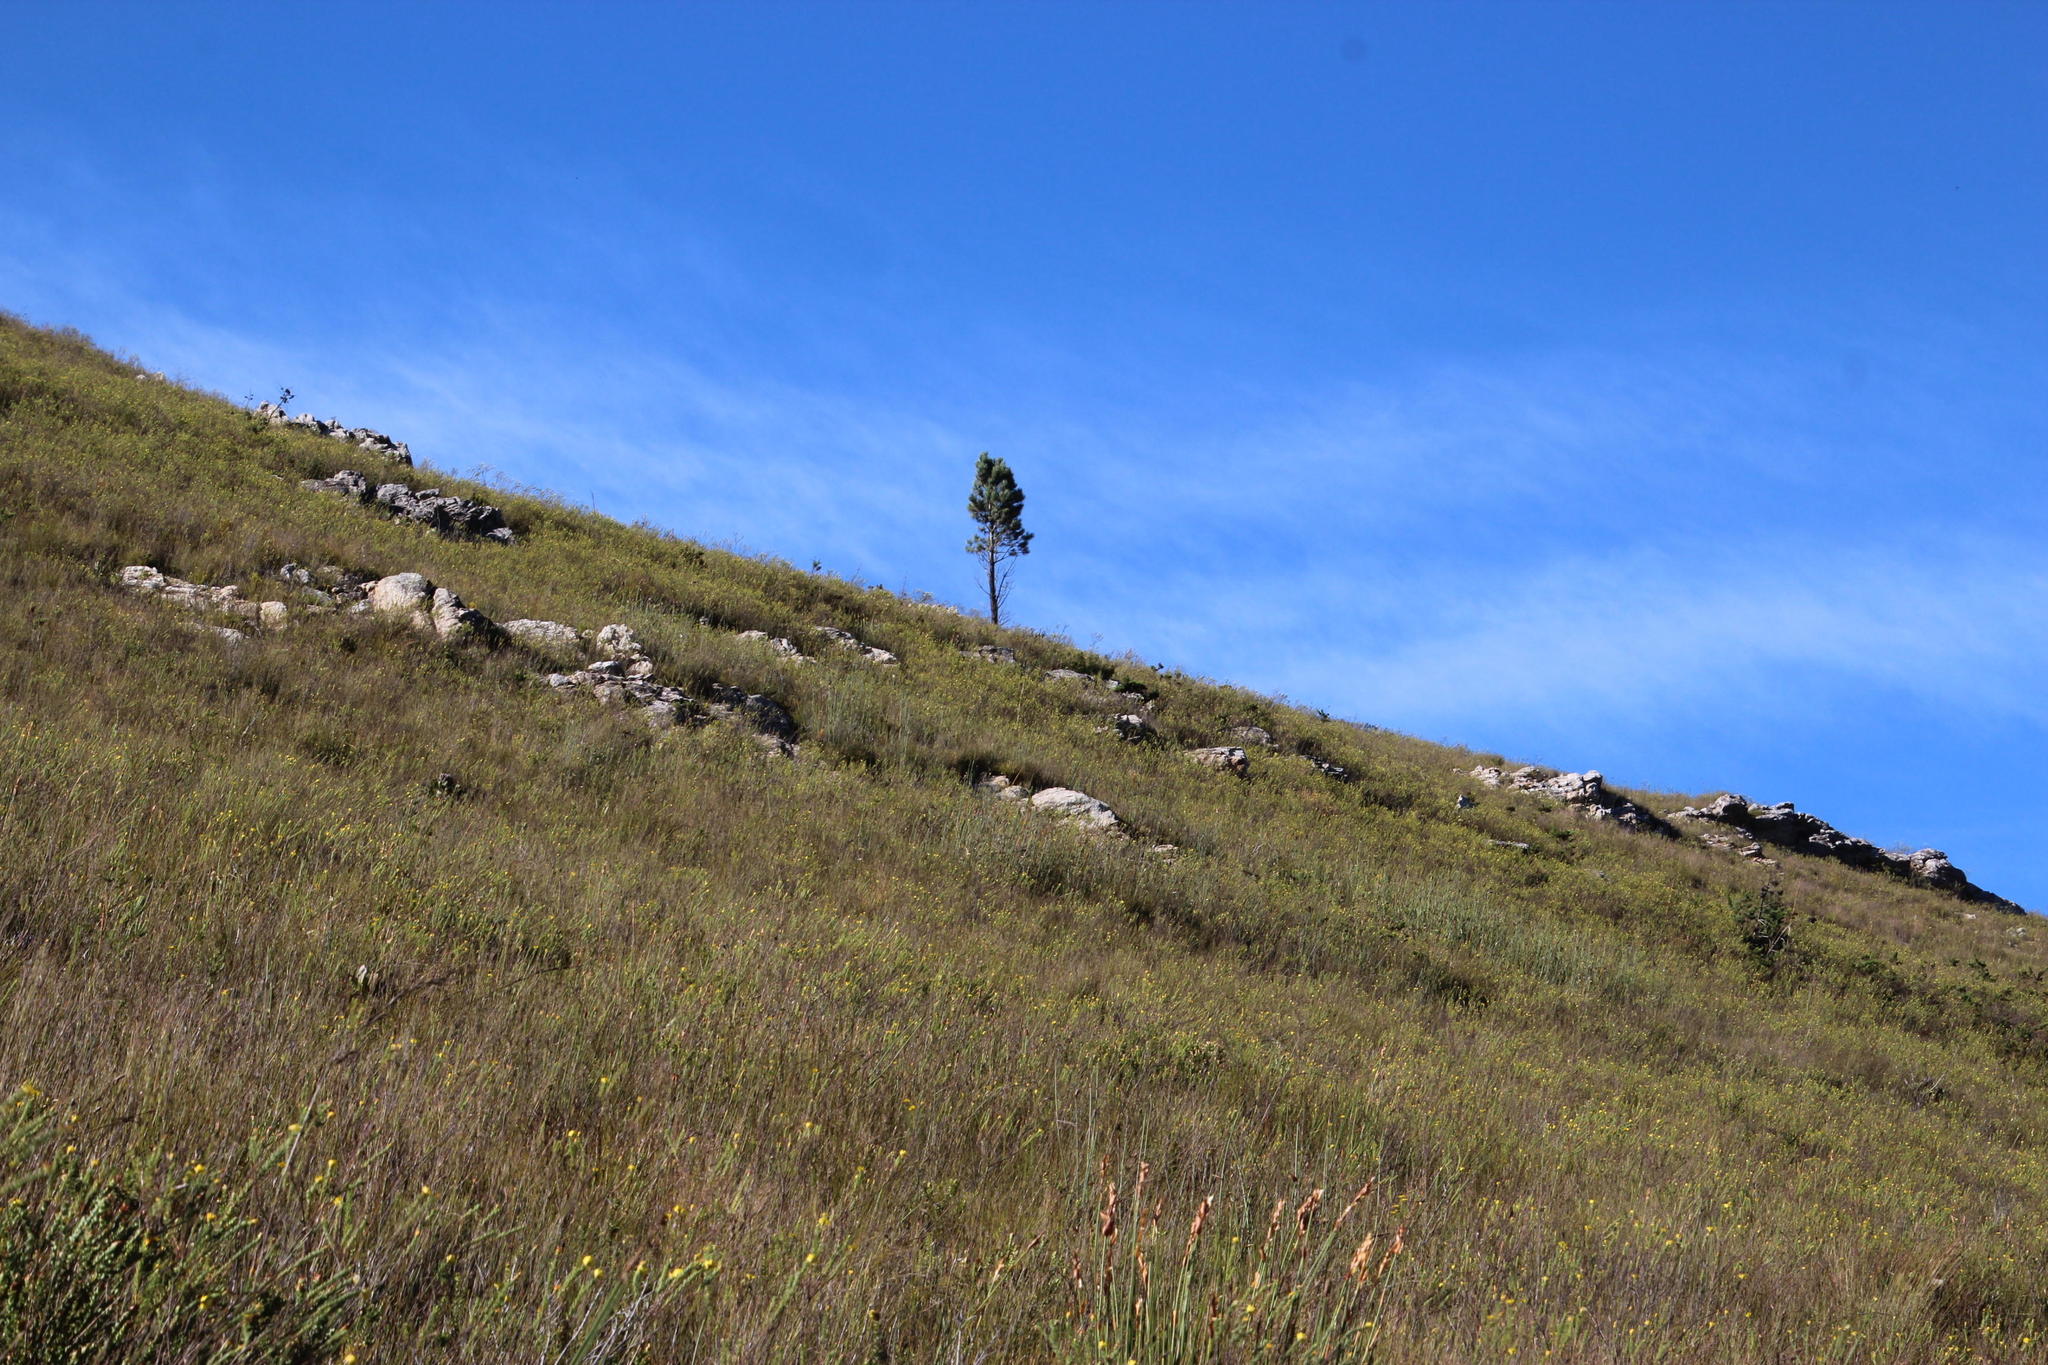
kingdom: Plantae
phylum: Tracheophyta
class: Pinopsida
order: Pinales
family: Pinaceae
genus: Pinus
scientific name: Pinus pinaster
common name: Maritime pine
